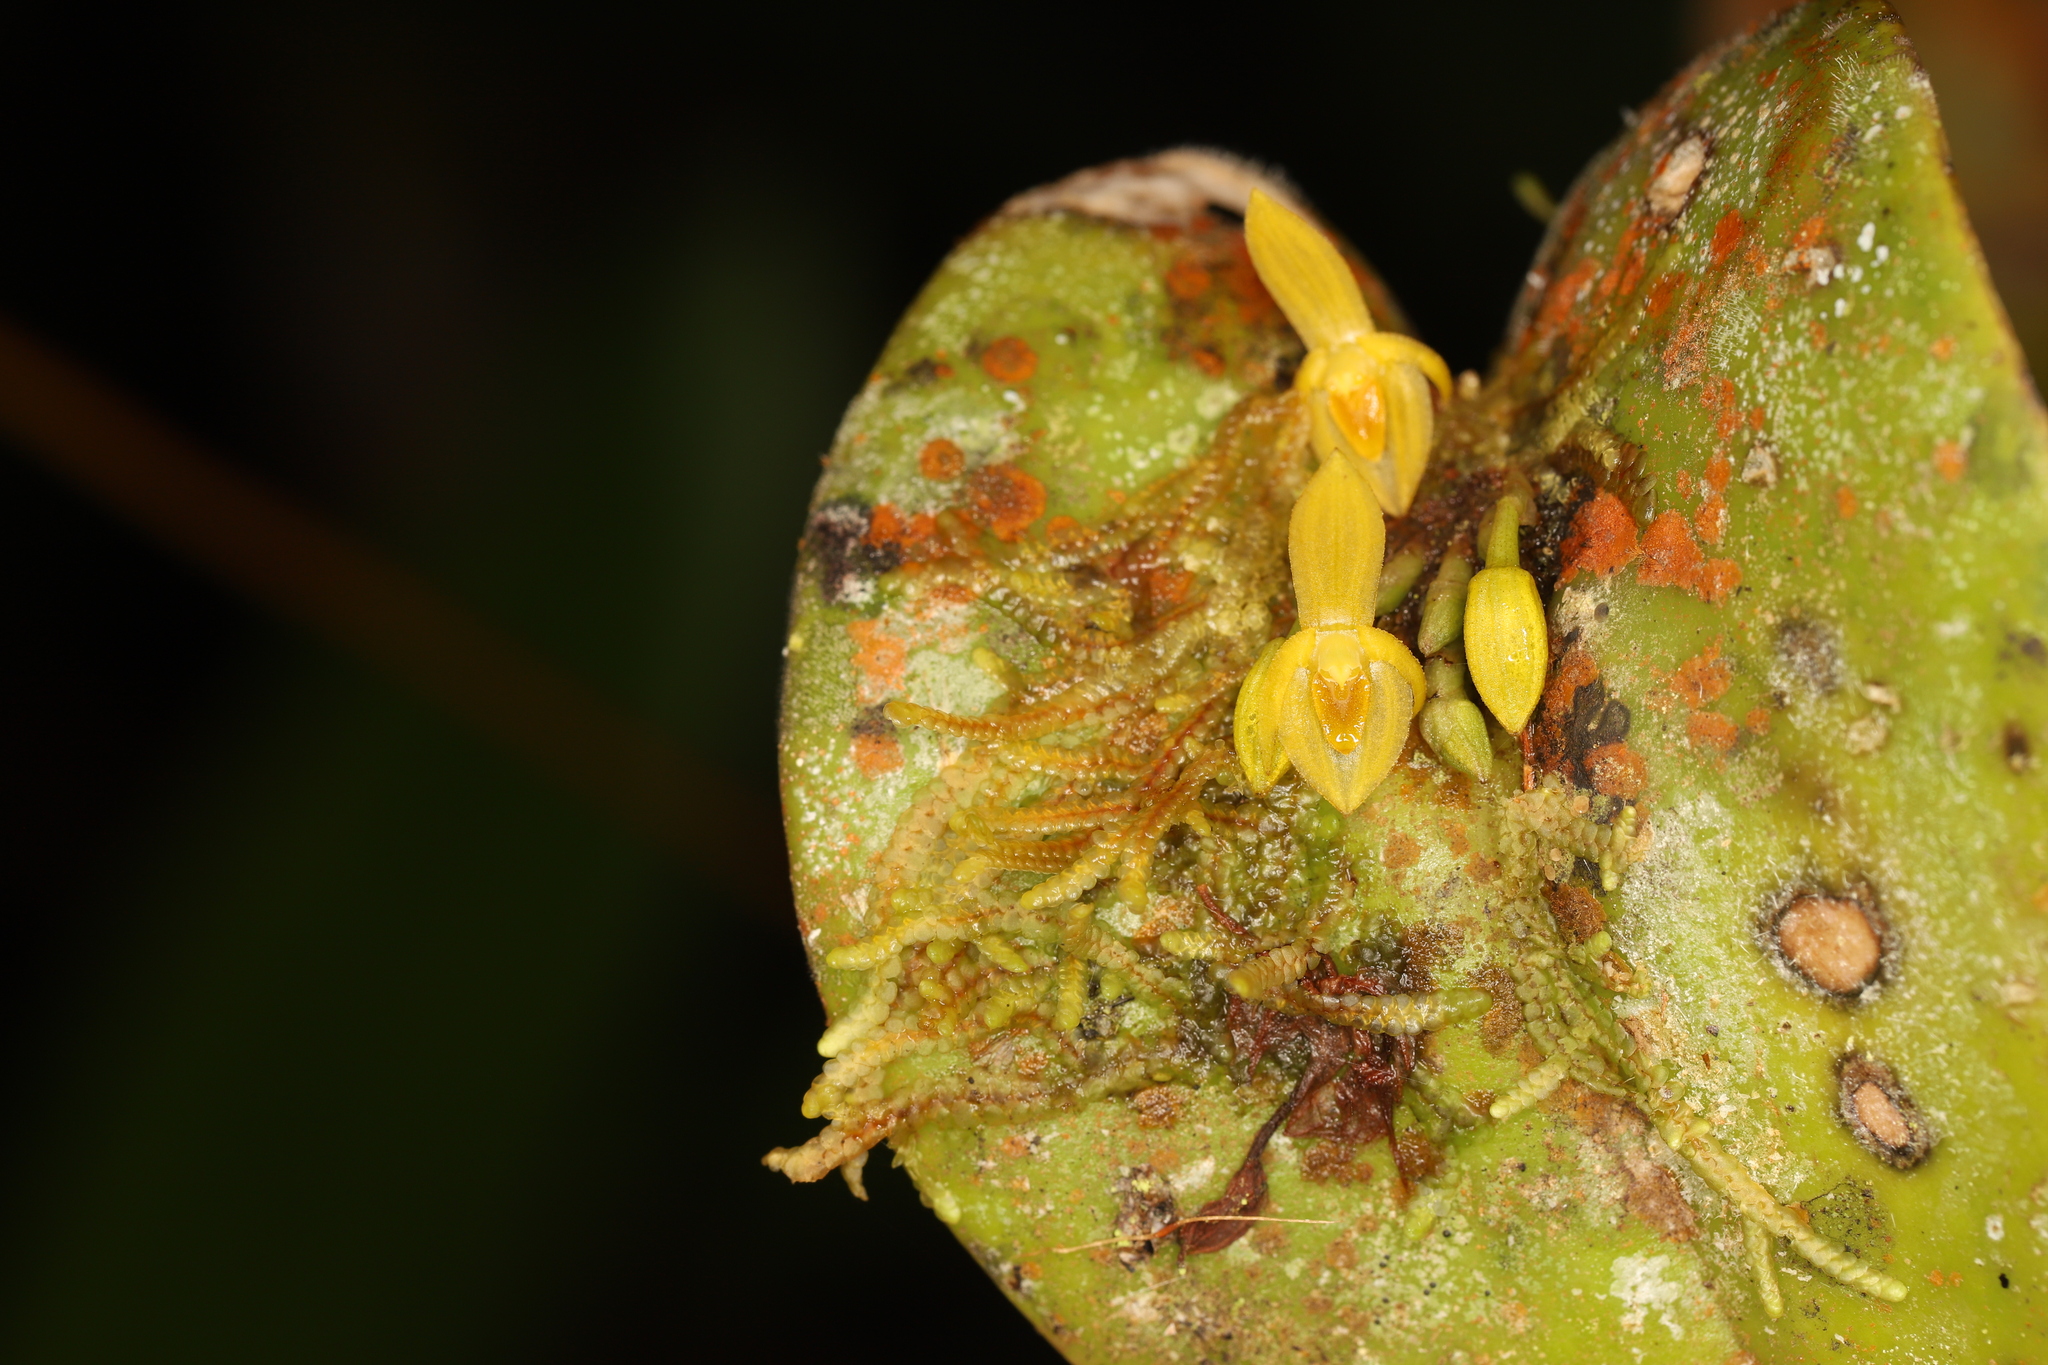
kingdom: Plantae
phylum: Tracheophyta
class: Liliopsida
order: Asparagales
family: Orchidaceae
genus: Pleurothallis
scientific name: Pleurothallis cordata
